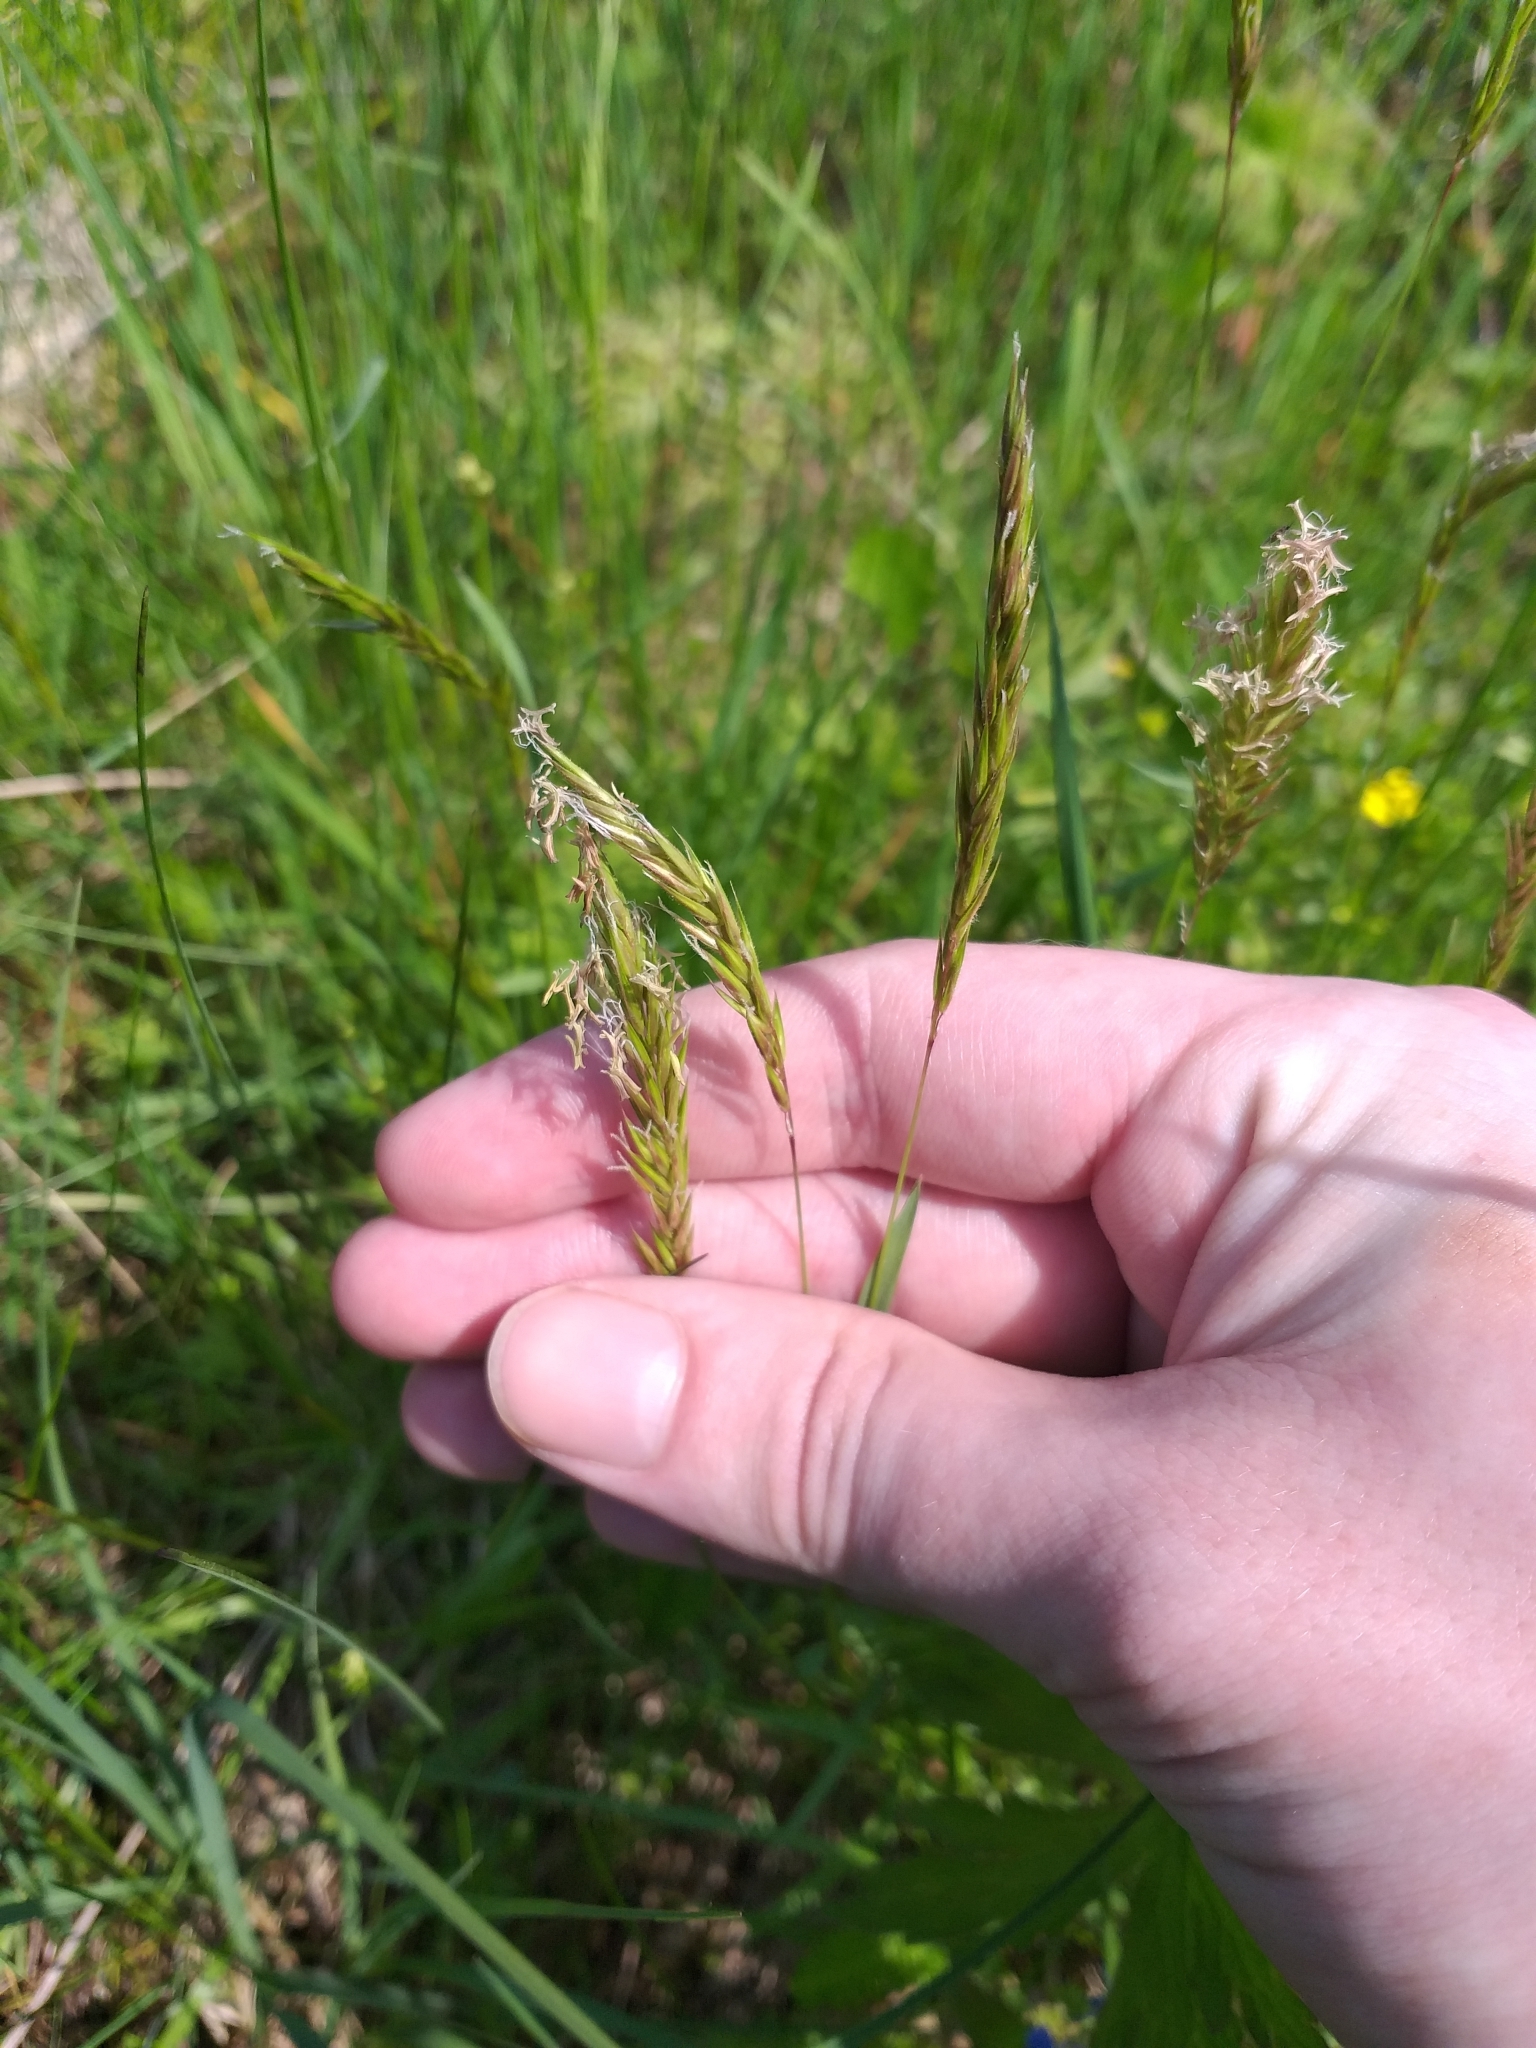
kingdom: Plantae
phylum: Tracheophyta
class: Liliopsida
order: Poales
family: Poaceae
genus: Anthoxanthum
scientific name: Anthoxanthum odoratum
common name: Sweet vernalgrass
